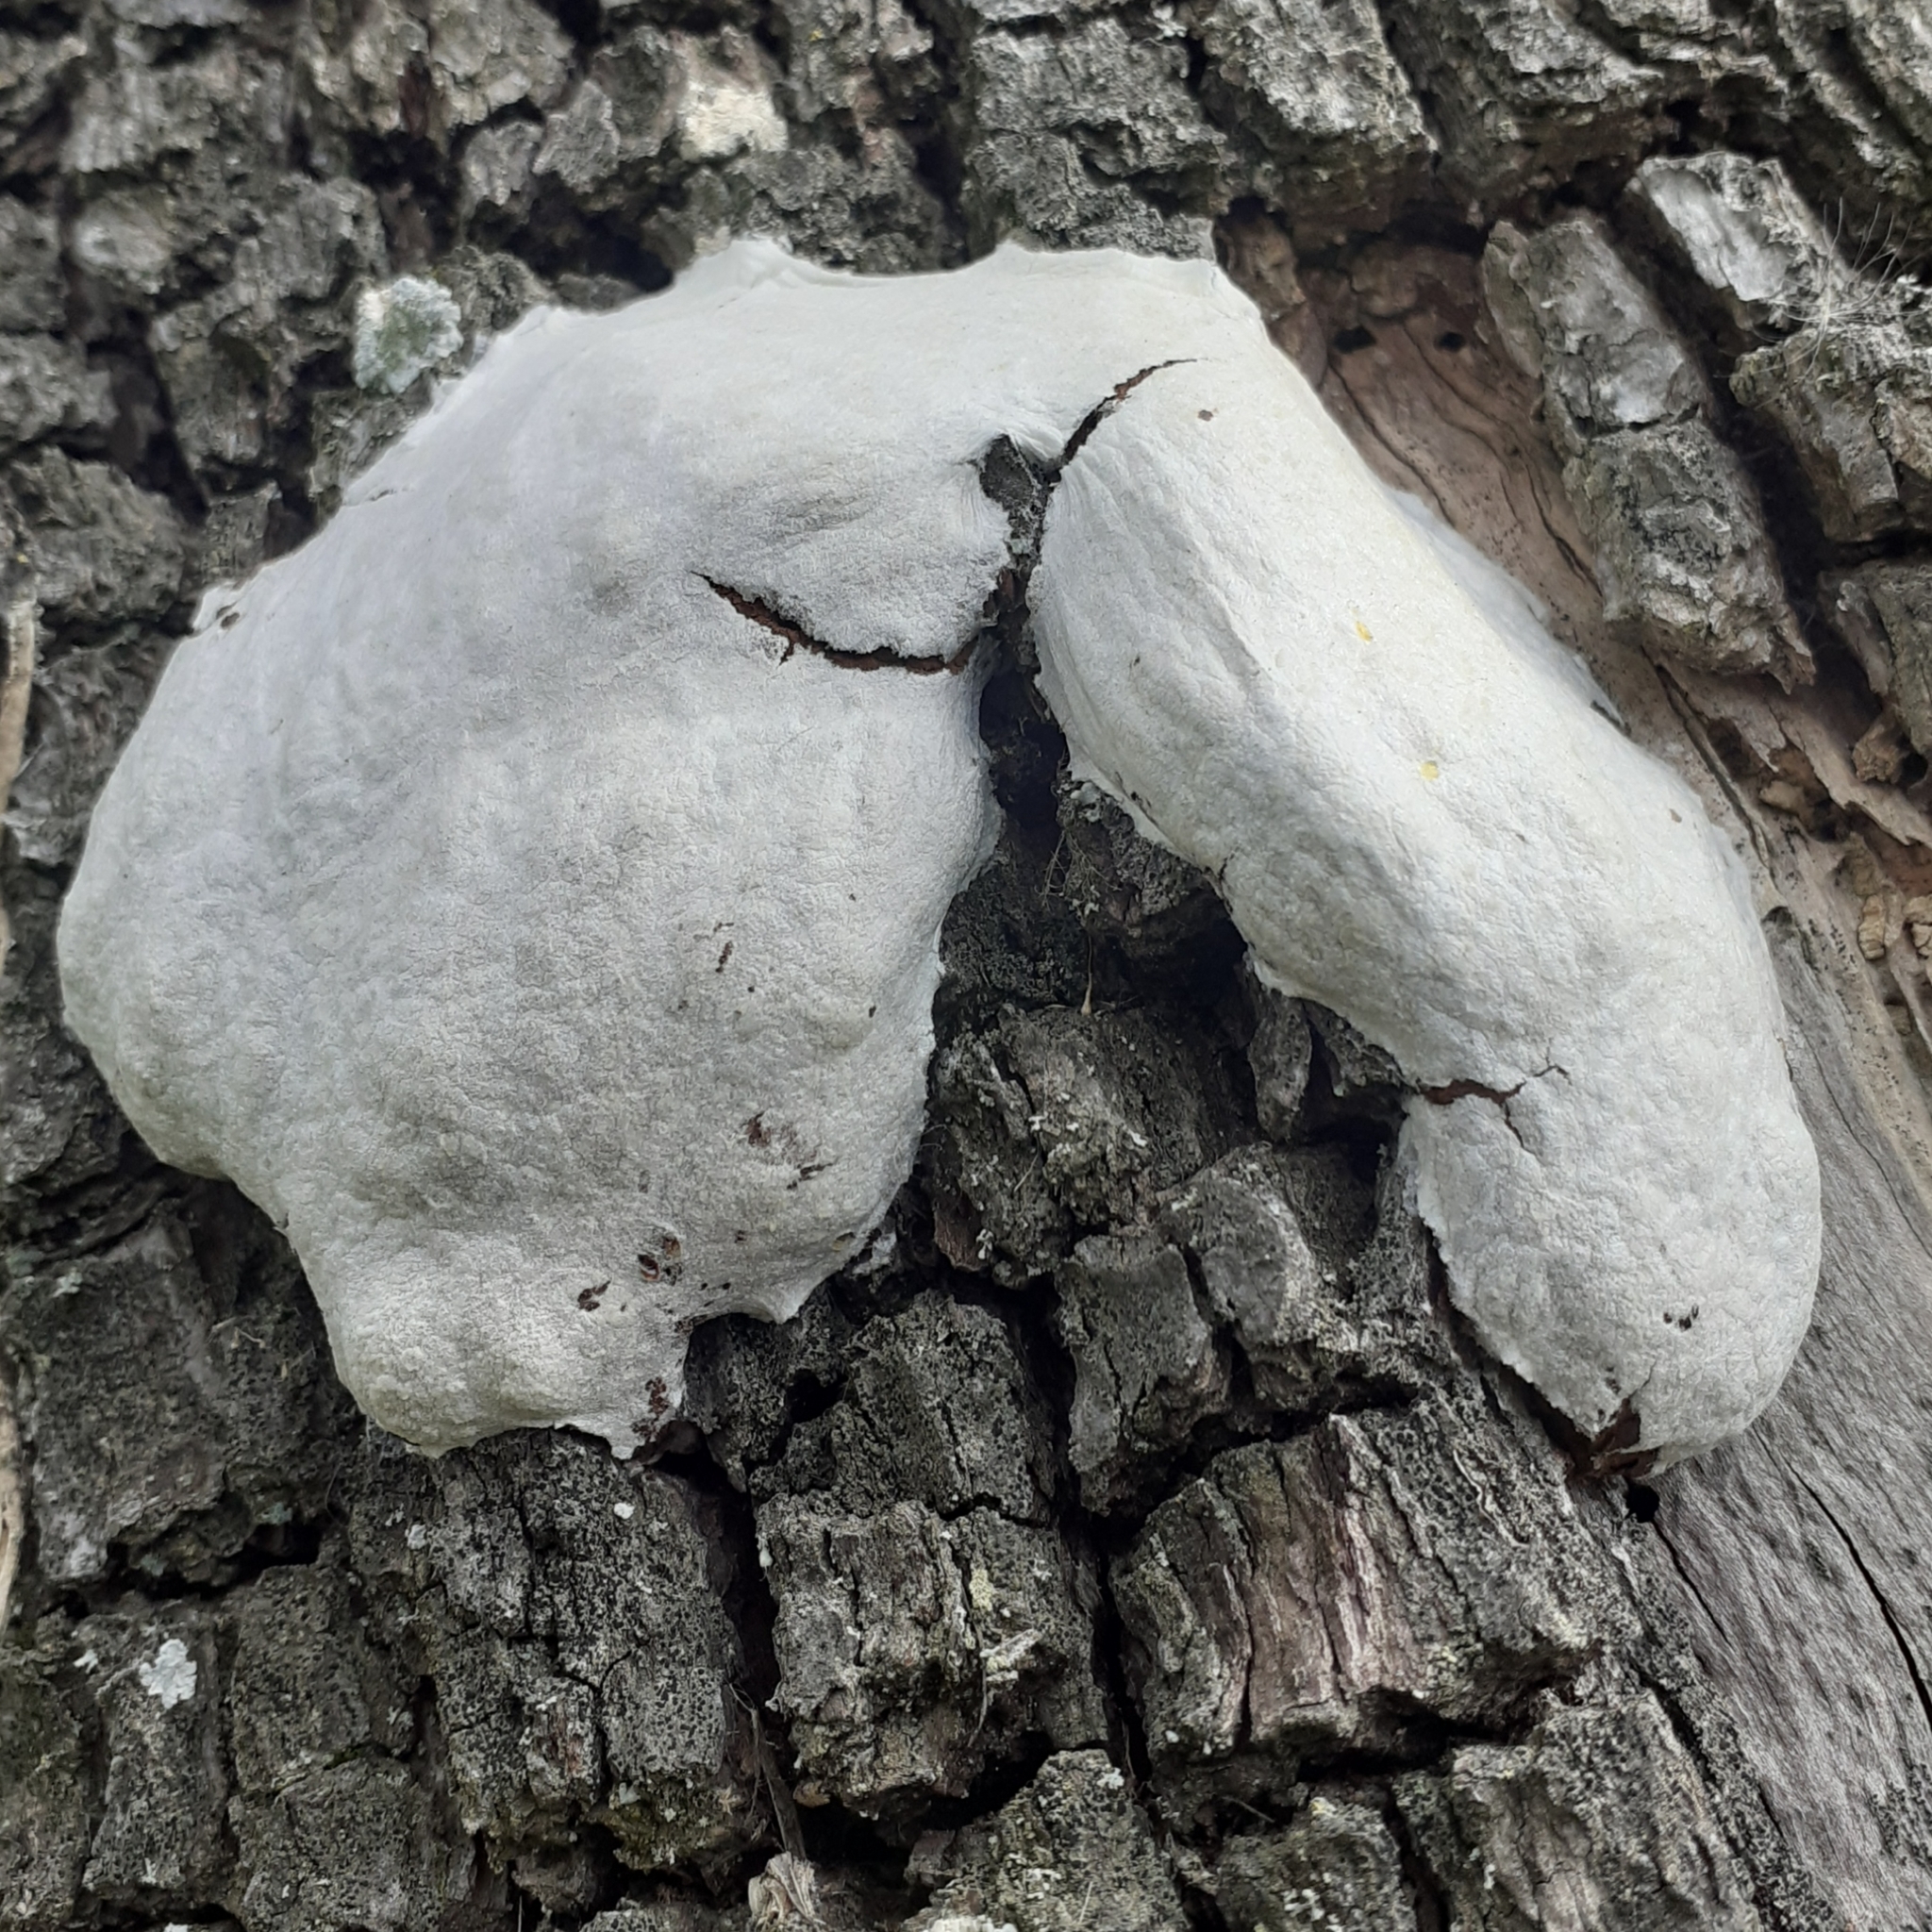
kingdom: Protozoa
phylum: Mycetozoa
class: Myxomycetes
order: Cribrariales
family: Tubiferaceae
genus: Reticularia
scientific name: Reticularia lycoperdon
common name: False puffball
